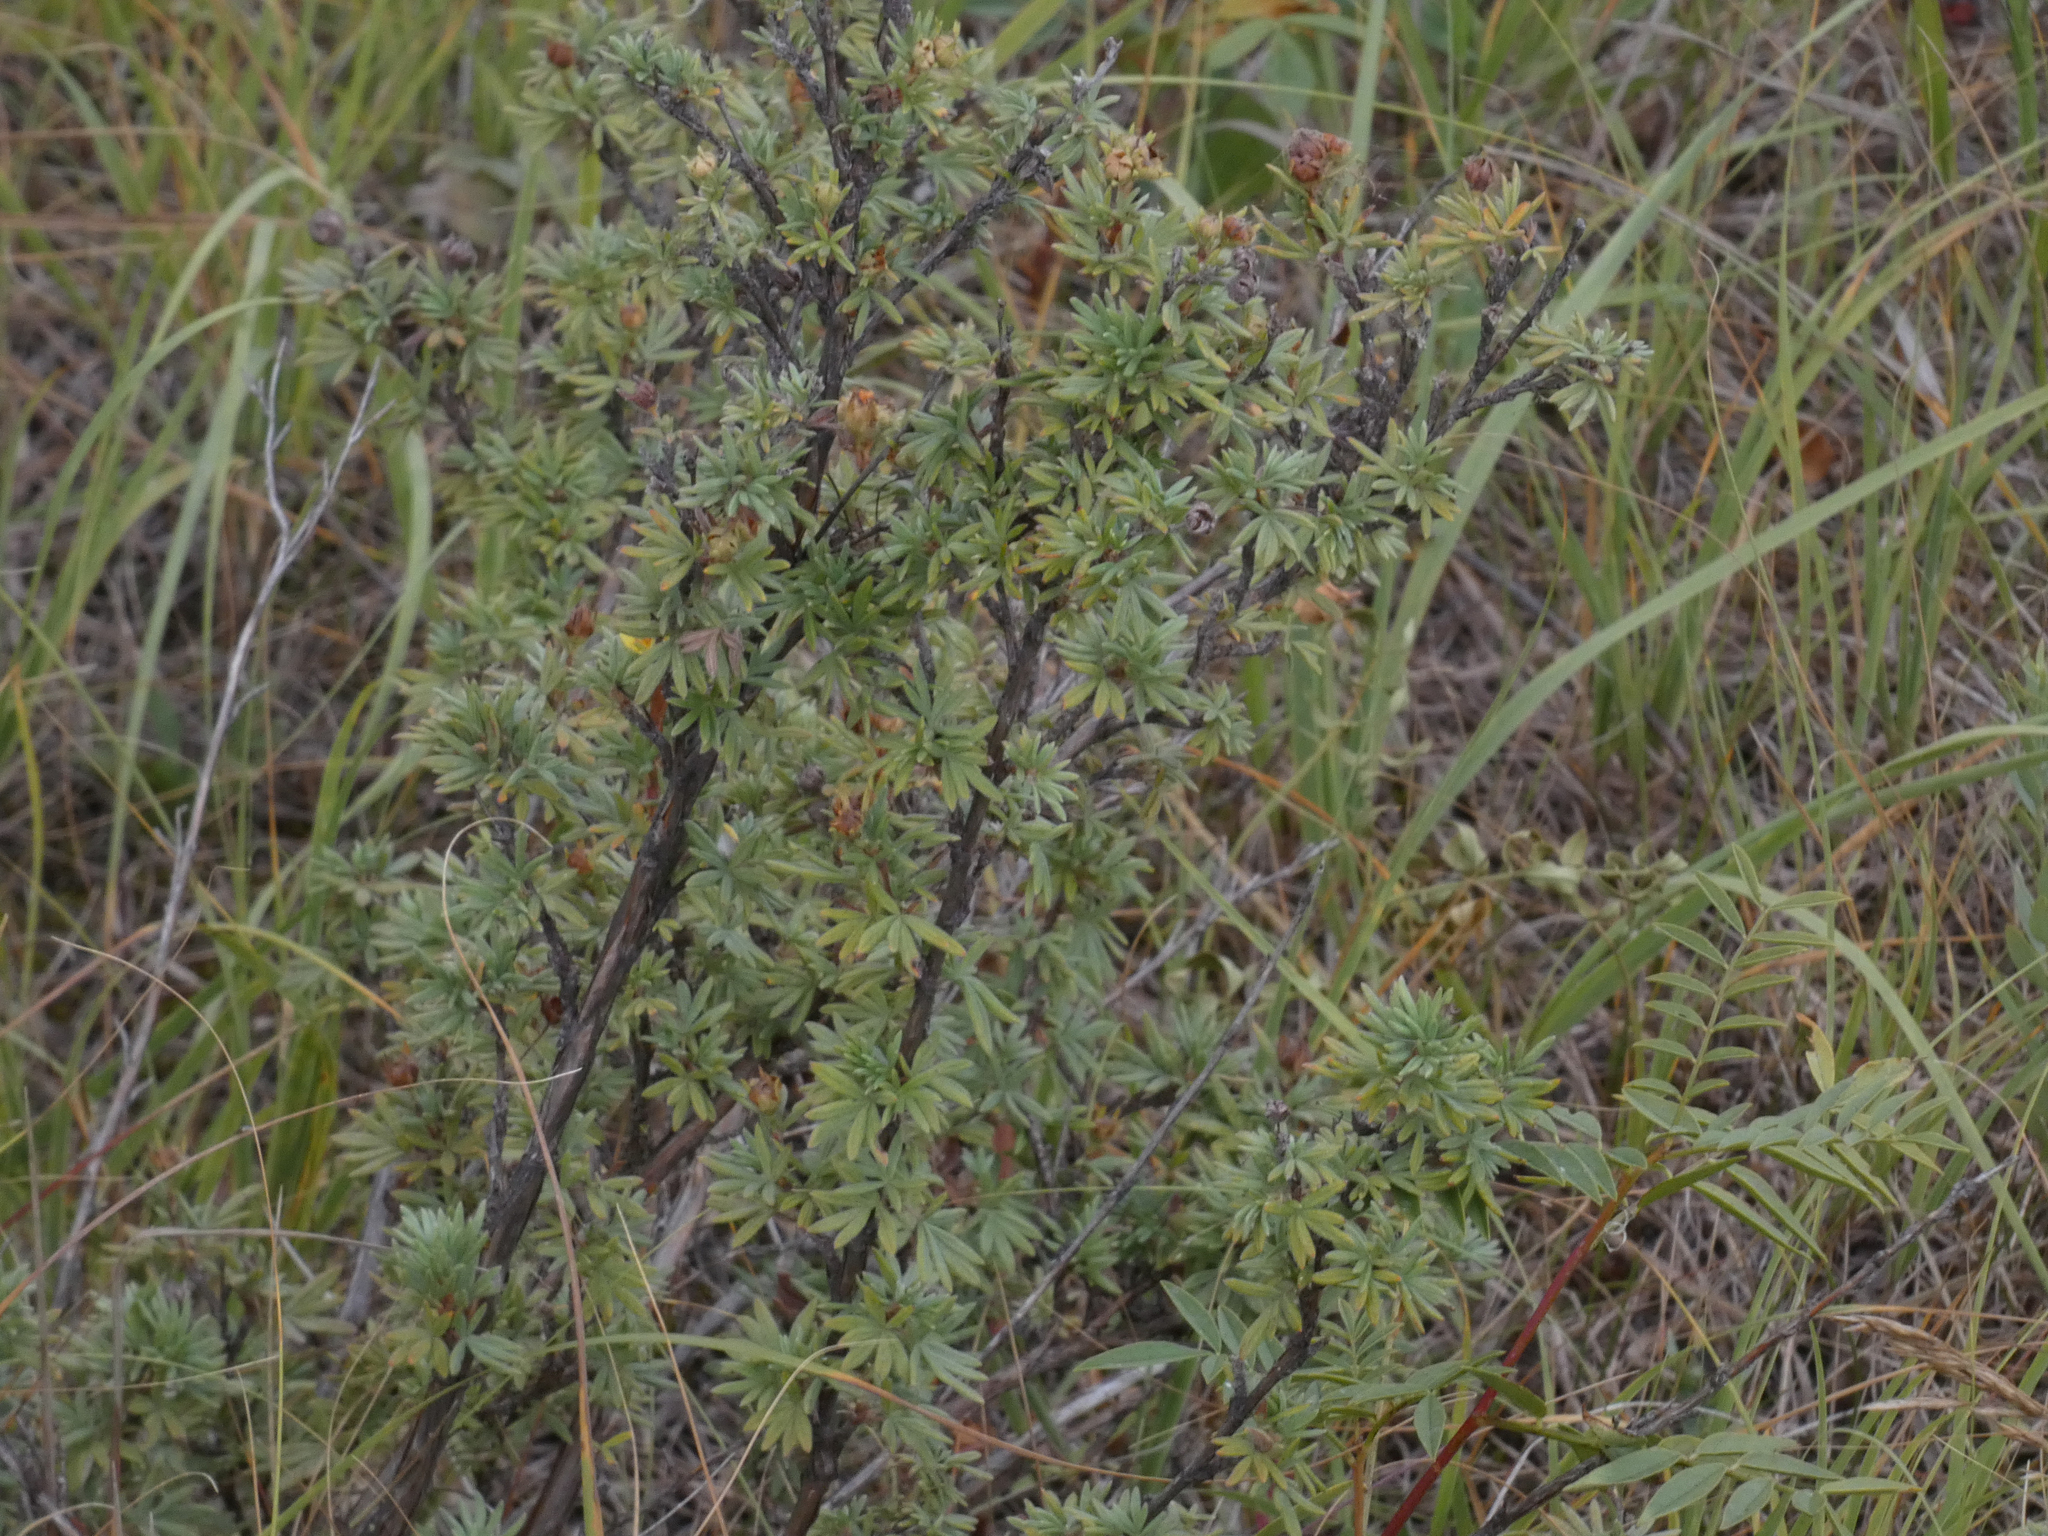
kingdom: Plantae
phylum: Tracheophyta
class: Magnoliopsida
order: Rosales
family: Rosaceae
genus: Dasiphora
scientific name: Dasiphora fruticosa
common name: Shrubby cinquefoil
